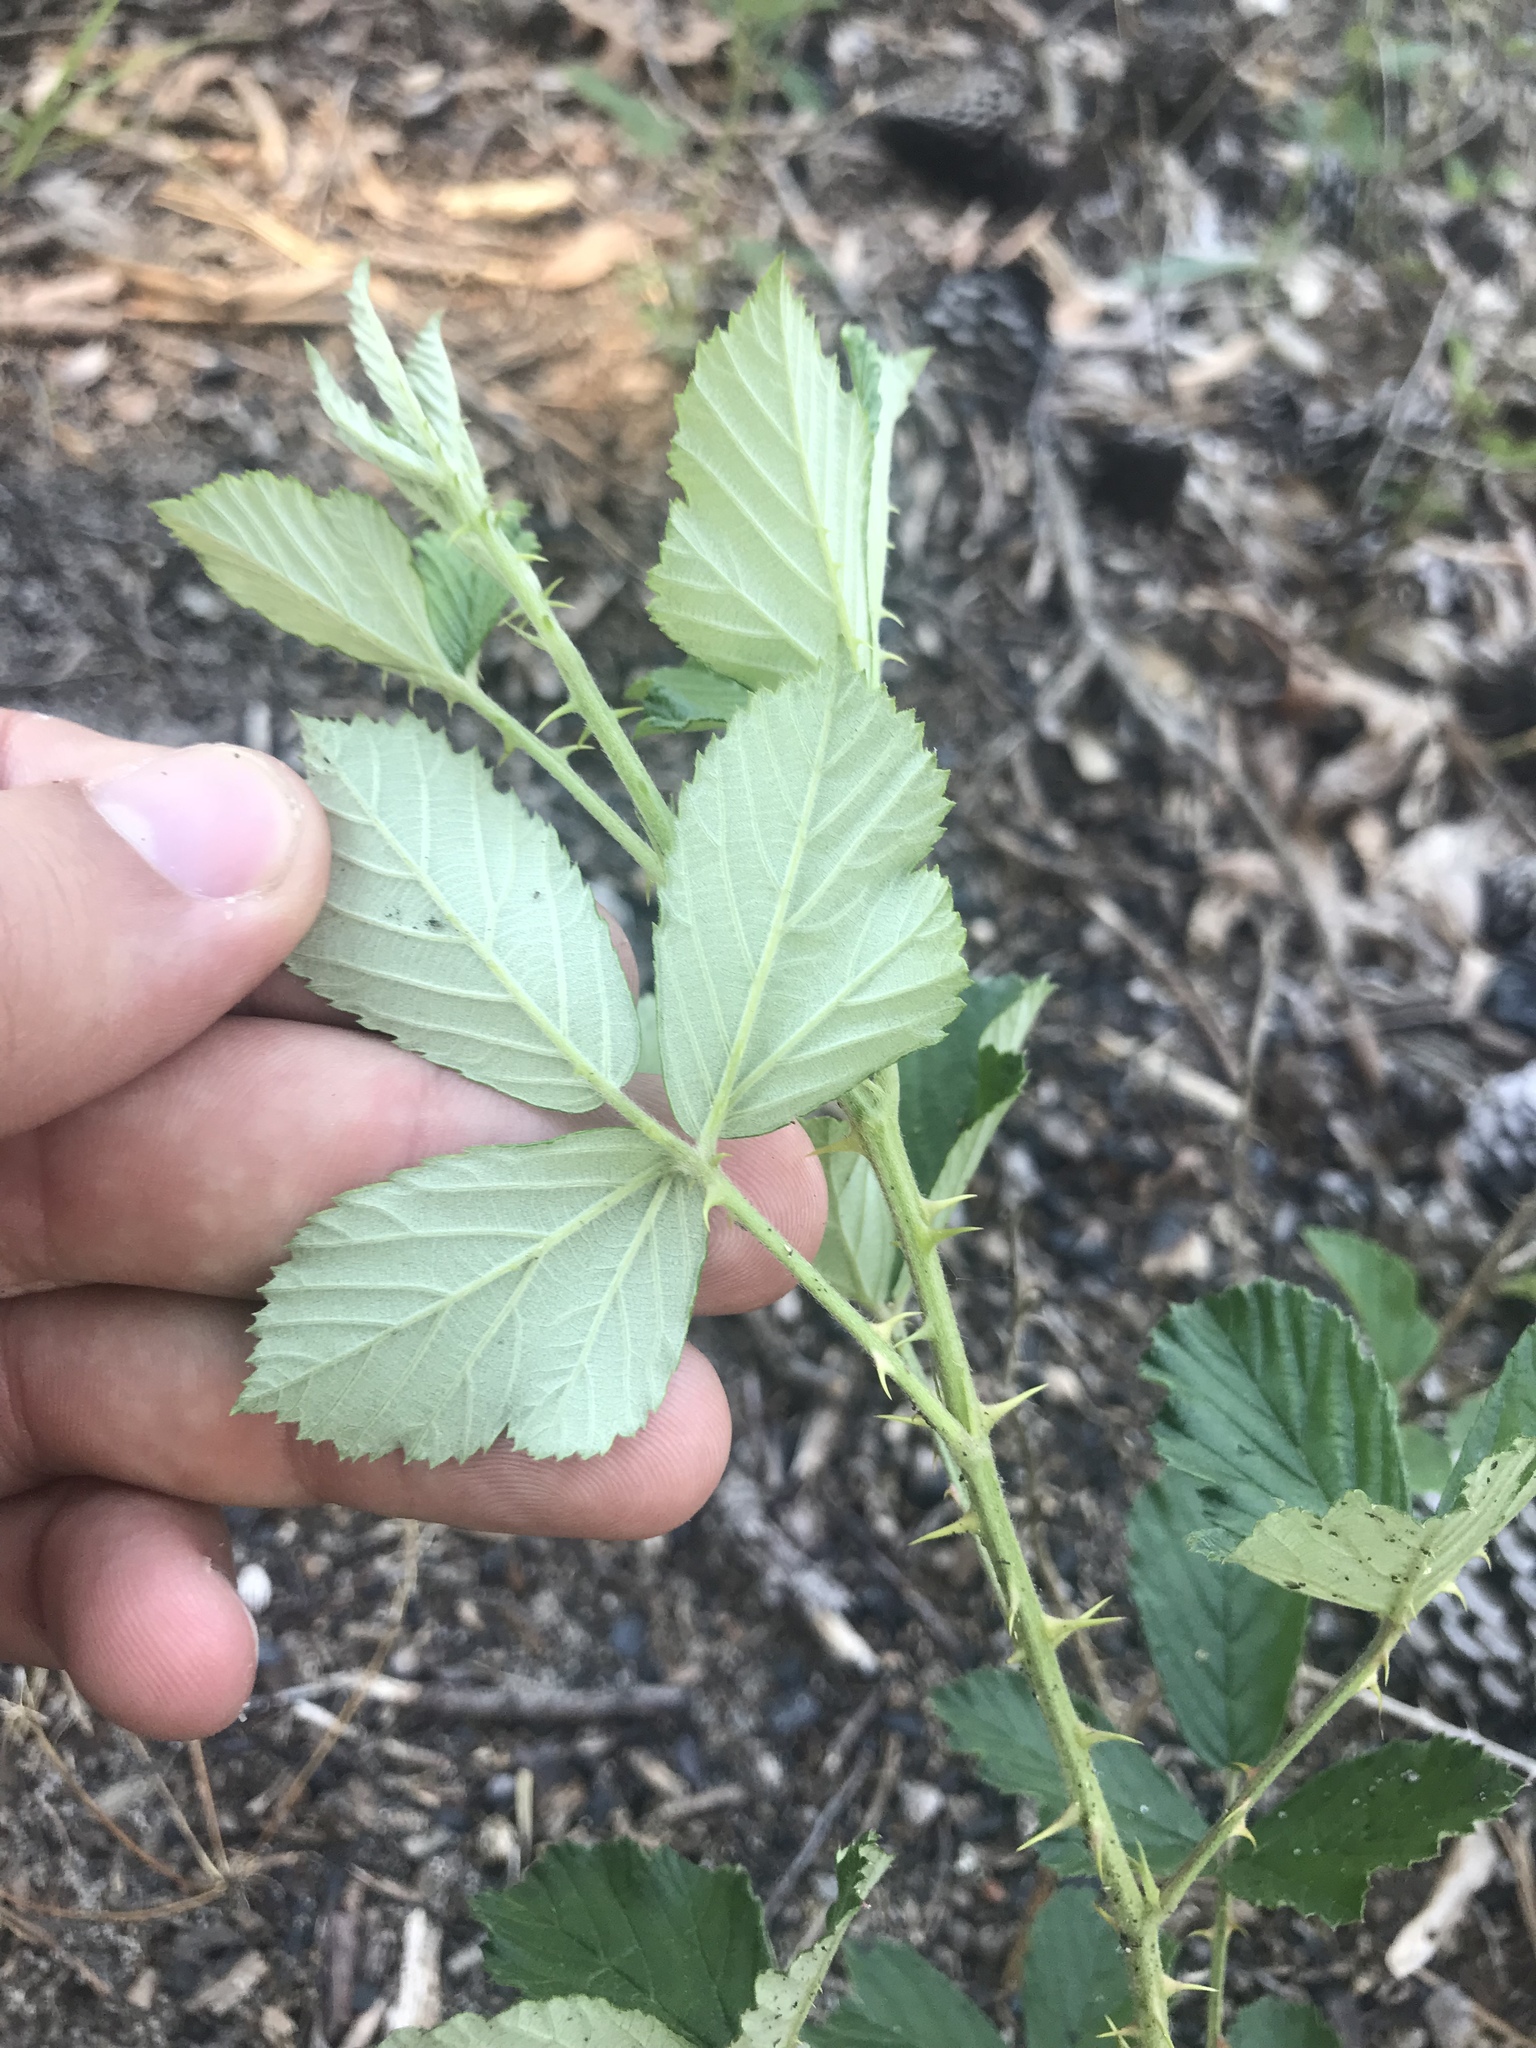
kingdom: Plantae
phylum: Tracheophyta
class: Magnoliopsida
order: Rosales
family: Rosaceae
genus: Rubus
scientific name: Rubus cuneifolius
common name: American bramble
